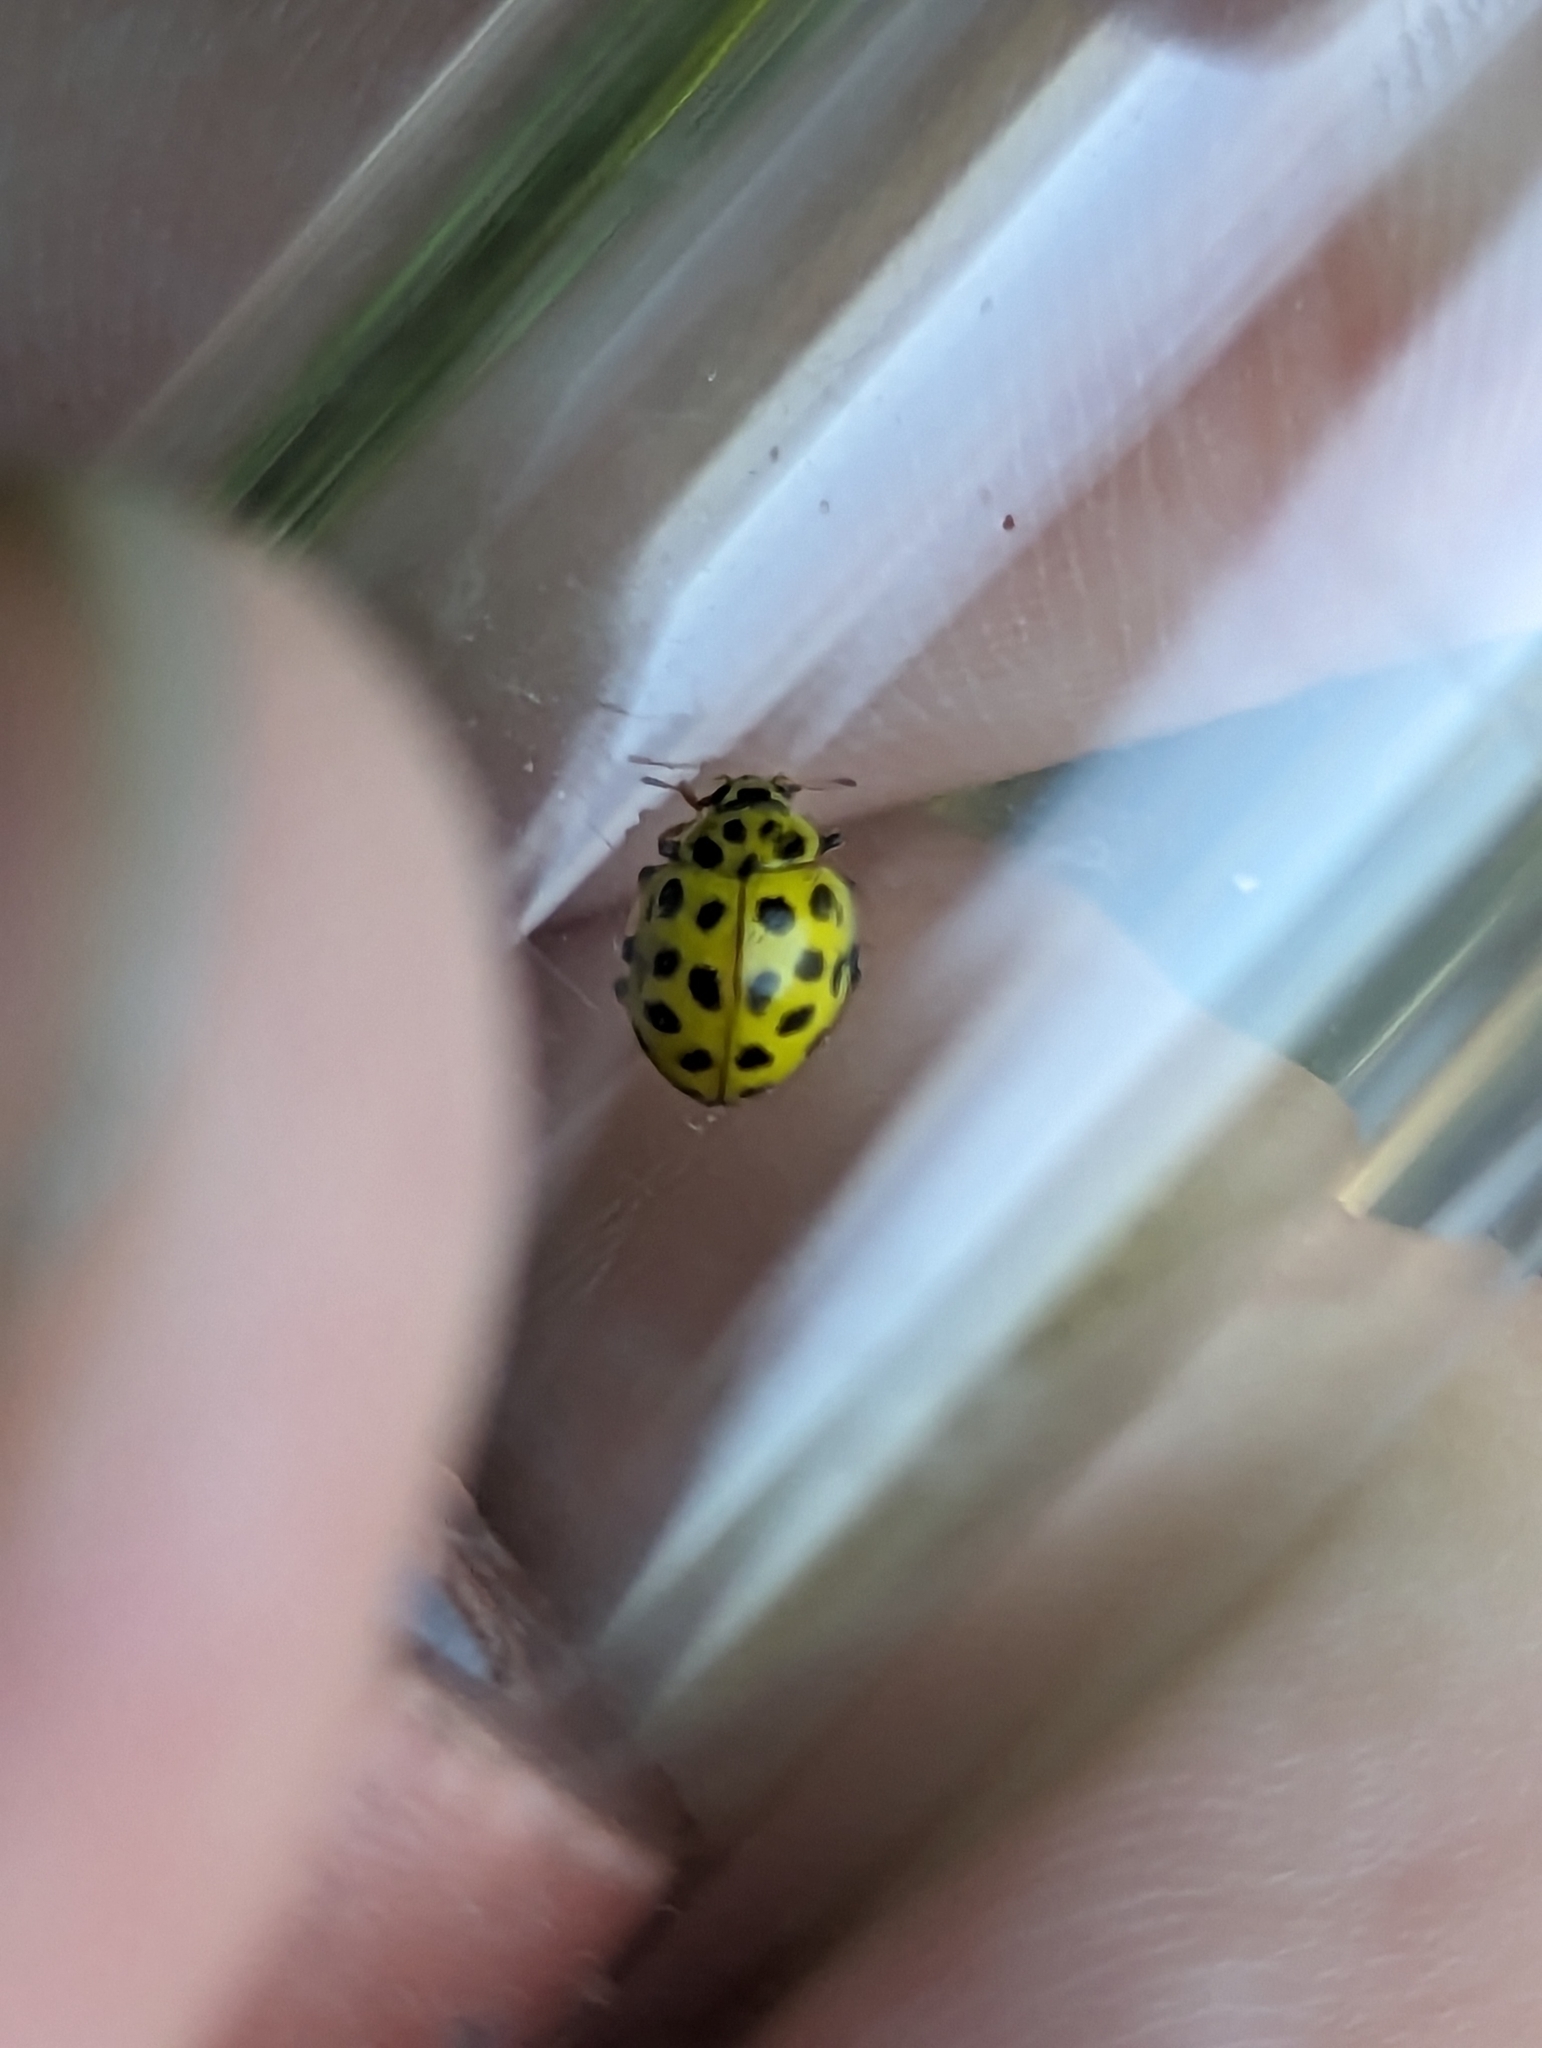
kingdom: Animalia
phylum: Arthropoda
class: Insecta
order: Coleoptera
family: Coccinellidae
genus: Psyllobora
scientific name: Psyllobora vigintiduopunctata
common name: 22-spot ladybird
